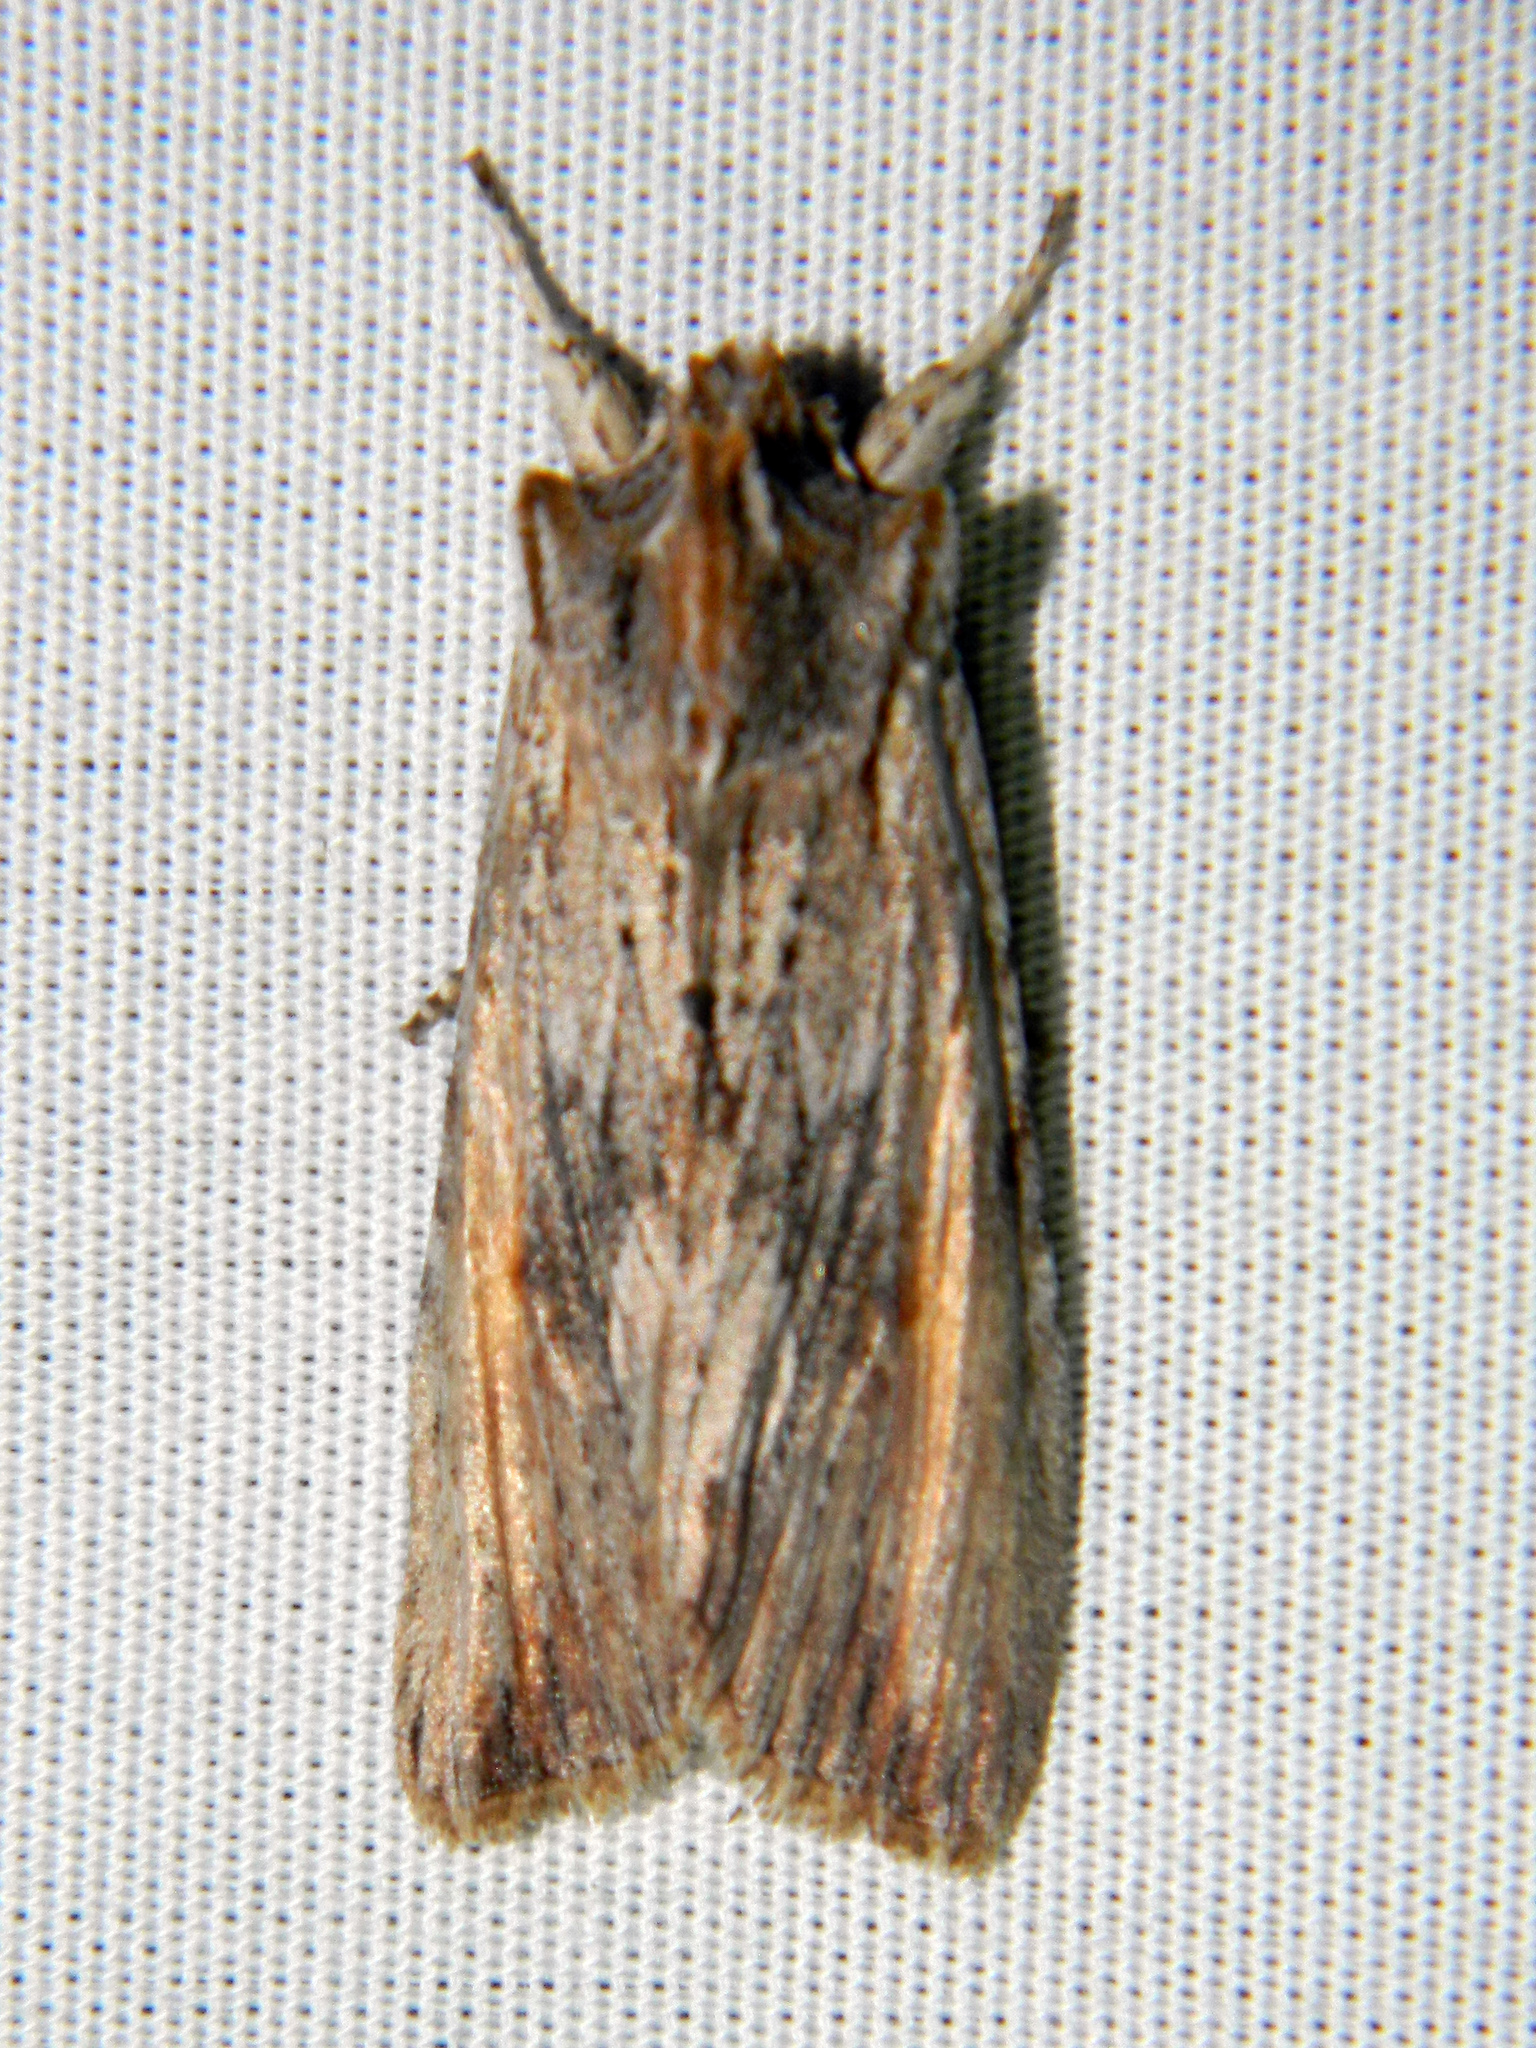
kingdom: Animalia
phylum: Arthropoda
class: Insecta
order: Lepidoptera
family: Noctuidae
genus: Lithophane
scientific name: Lithophane amanda
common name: Amanda's pinion moth
